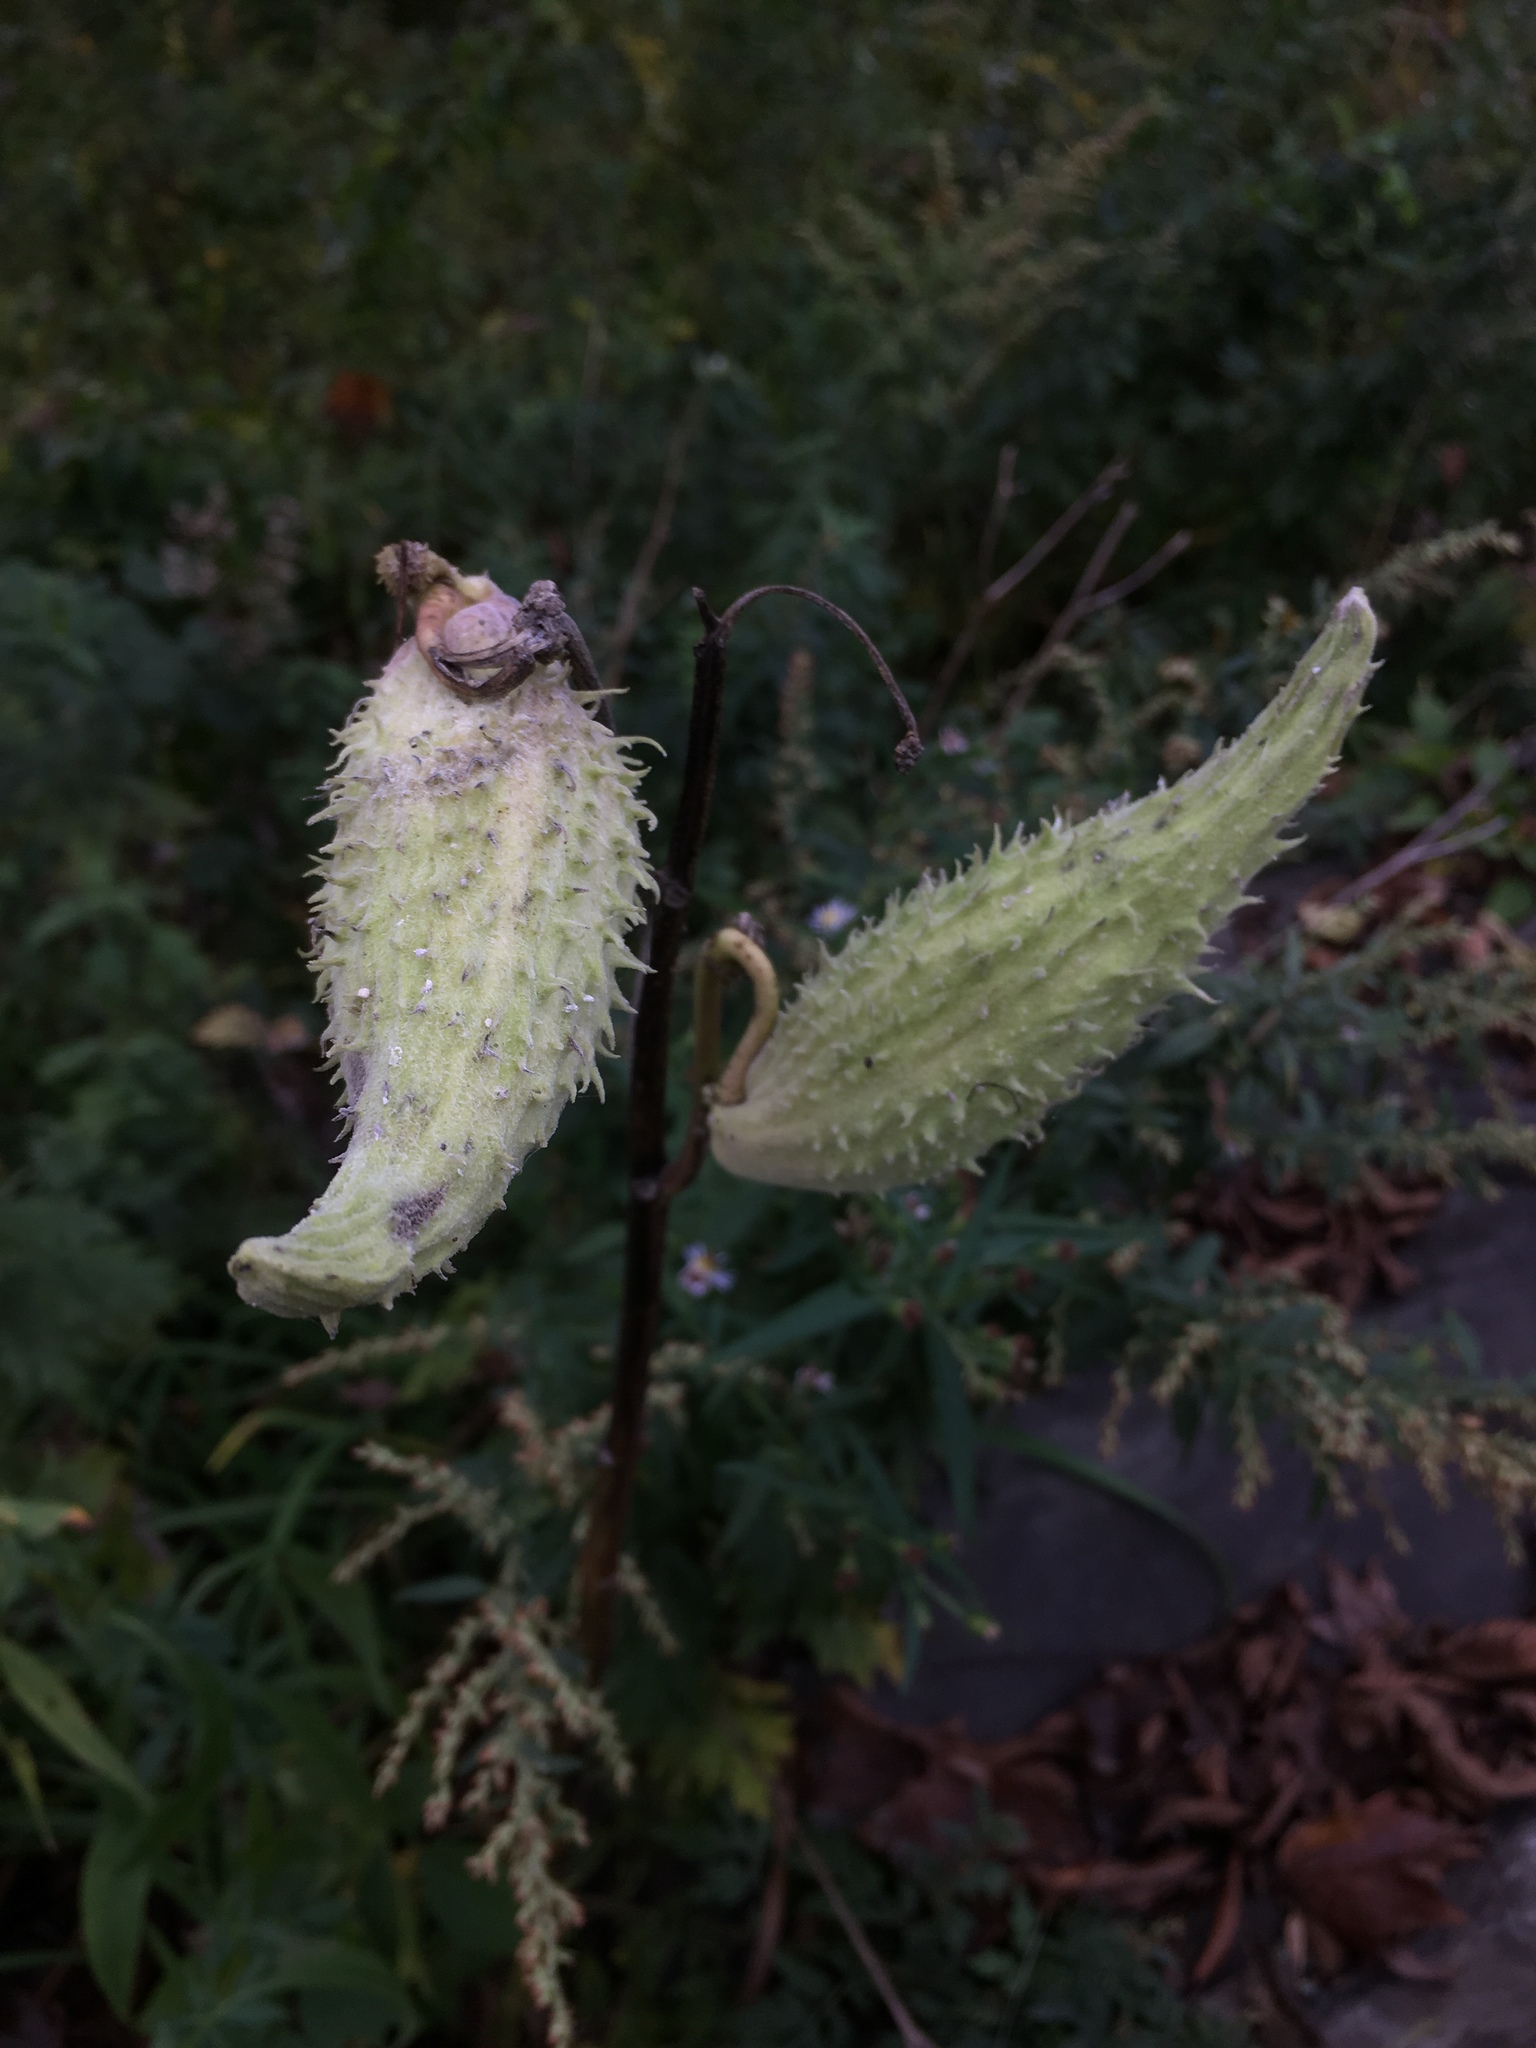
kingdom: Plantae
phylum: Tracheophyta
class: Magnoliopsida
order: Gentianales
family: Apocynaceae
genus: Asclepias
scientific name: Asclepias syriaca
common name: Common milkweed
